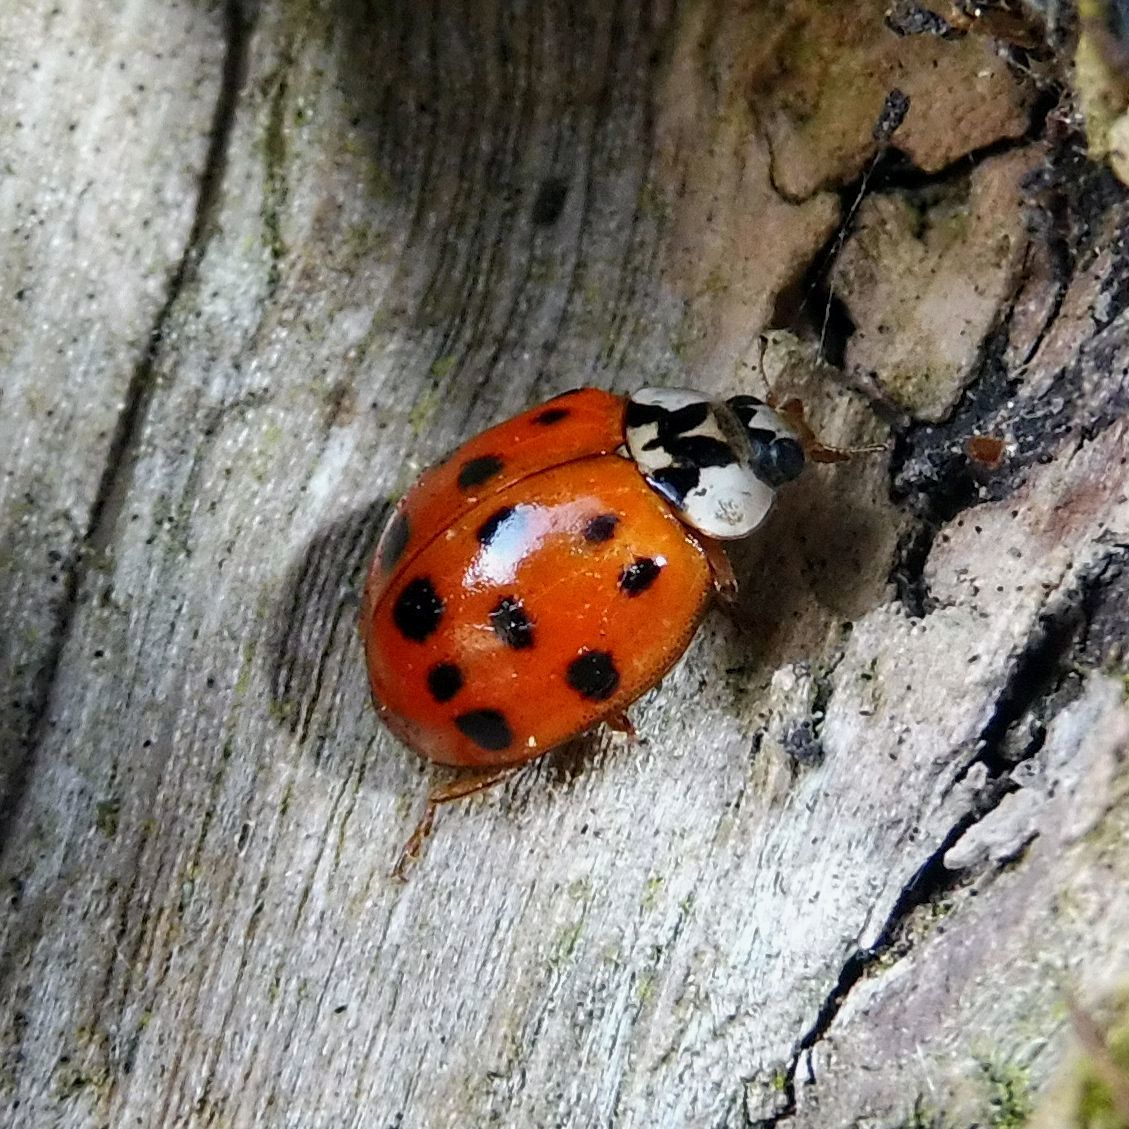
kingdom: Animalia
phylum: Arthropoda
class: Insecta
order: Coleoptera
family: Coccinellidae
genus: Harmonia
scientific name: Harmonia axyridis
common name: Harlequin ladybird
